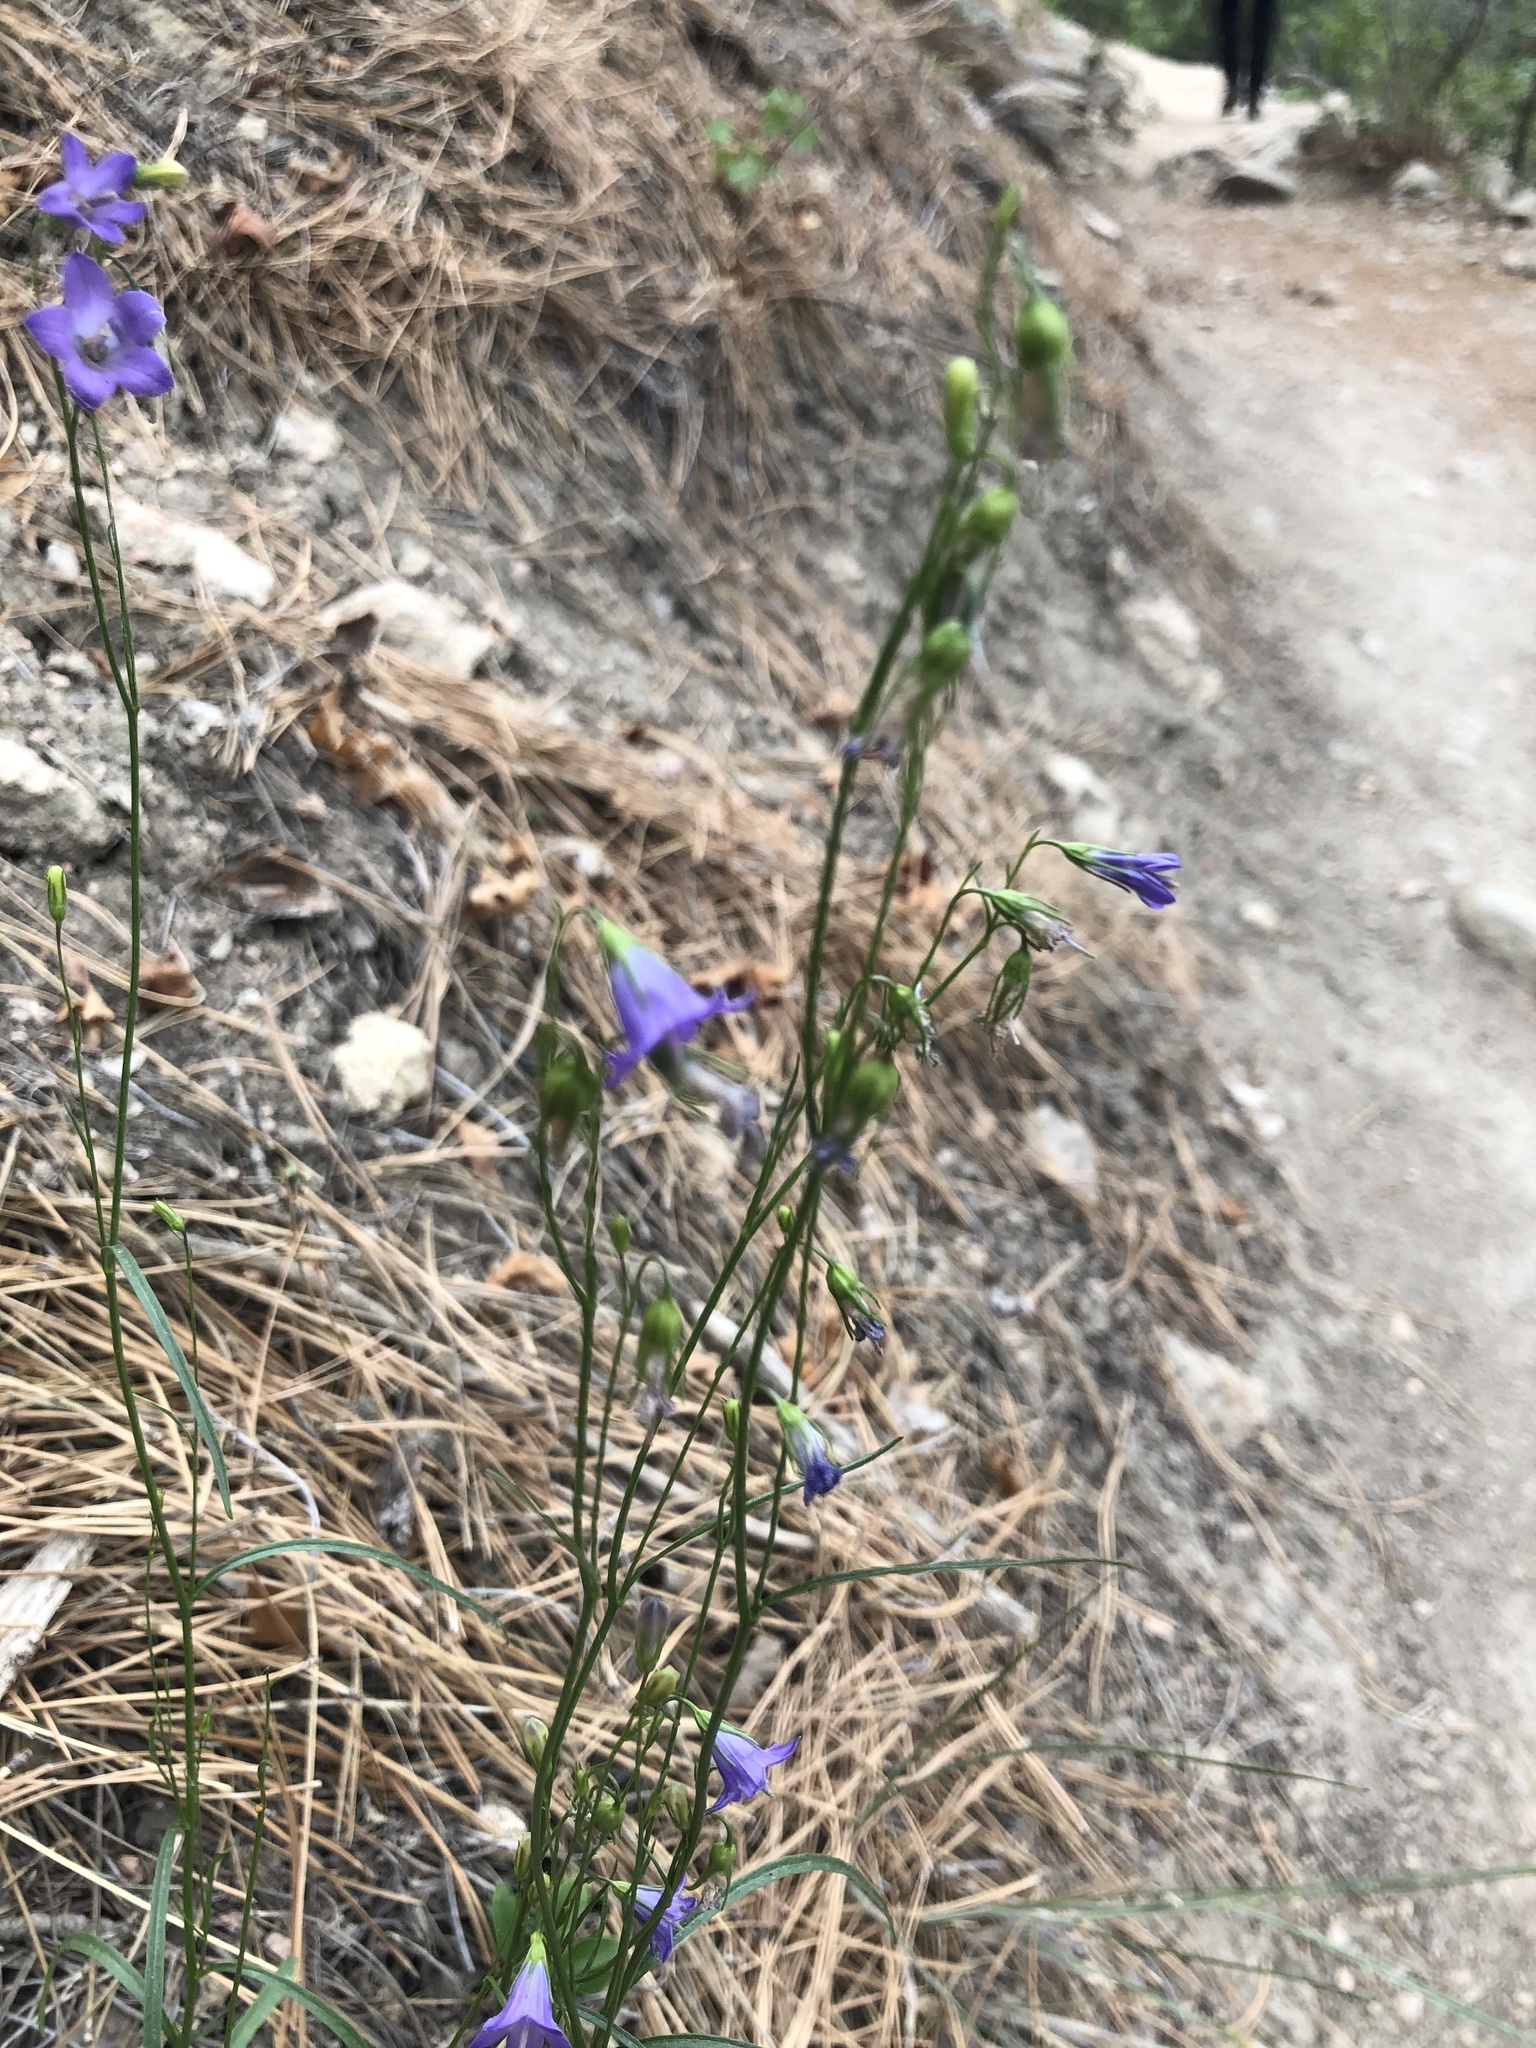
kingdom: Plantae
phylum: Tracheophyta
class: Magnoliopsida
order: Asterales
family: Campanulaceae
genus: Campanula
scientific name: Campanula petiolata
